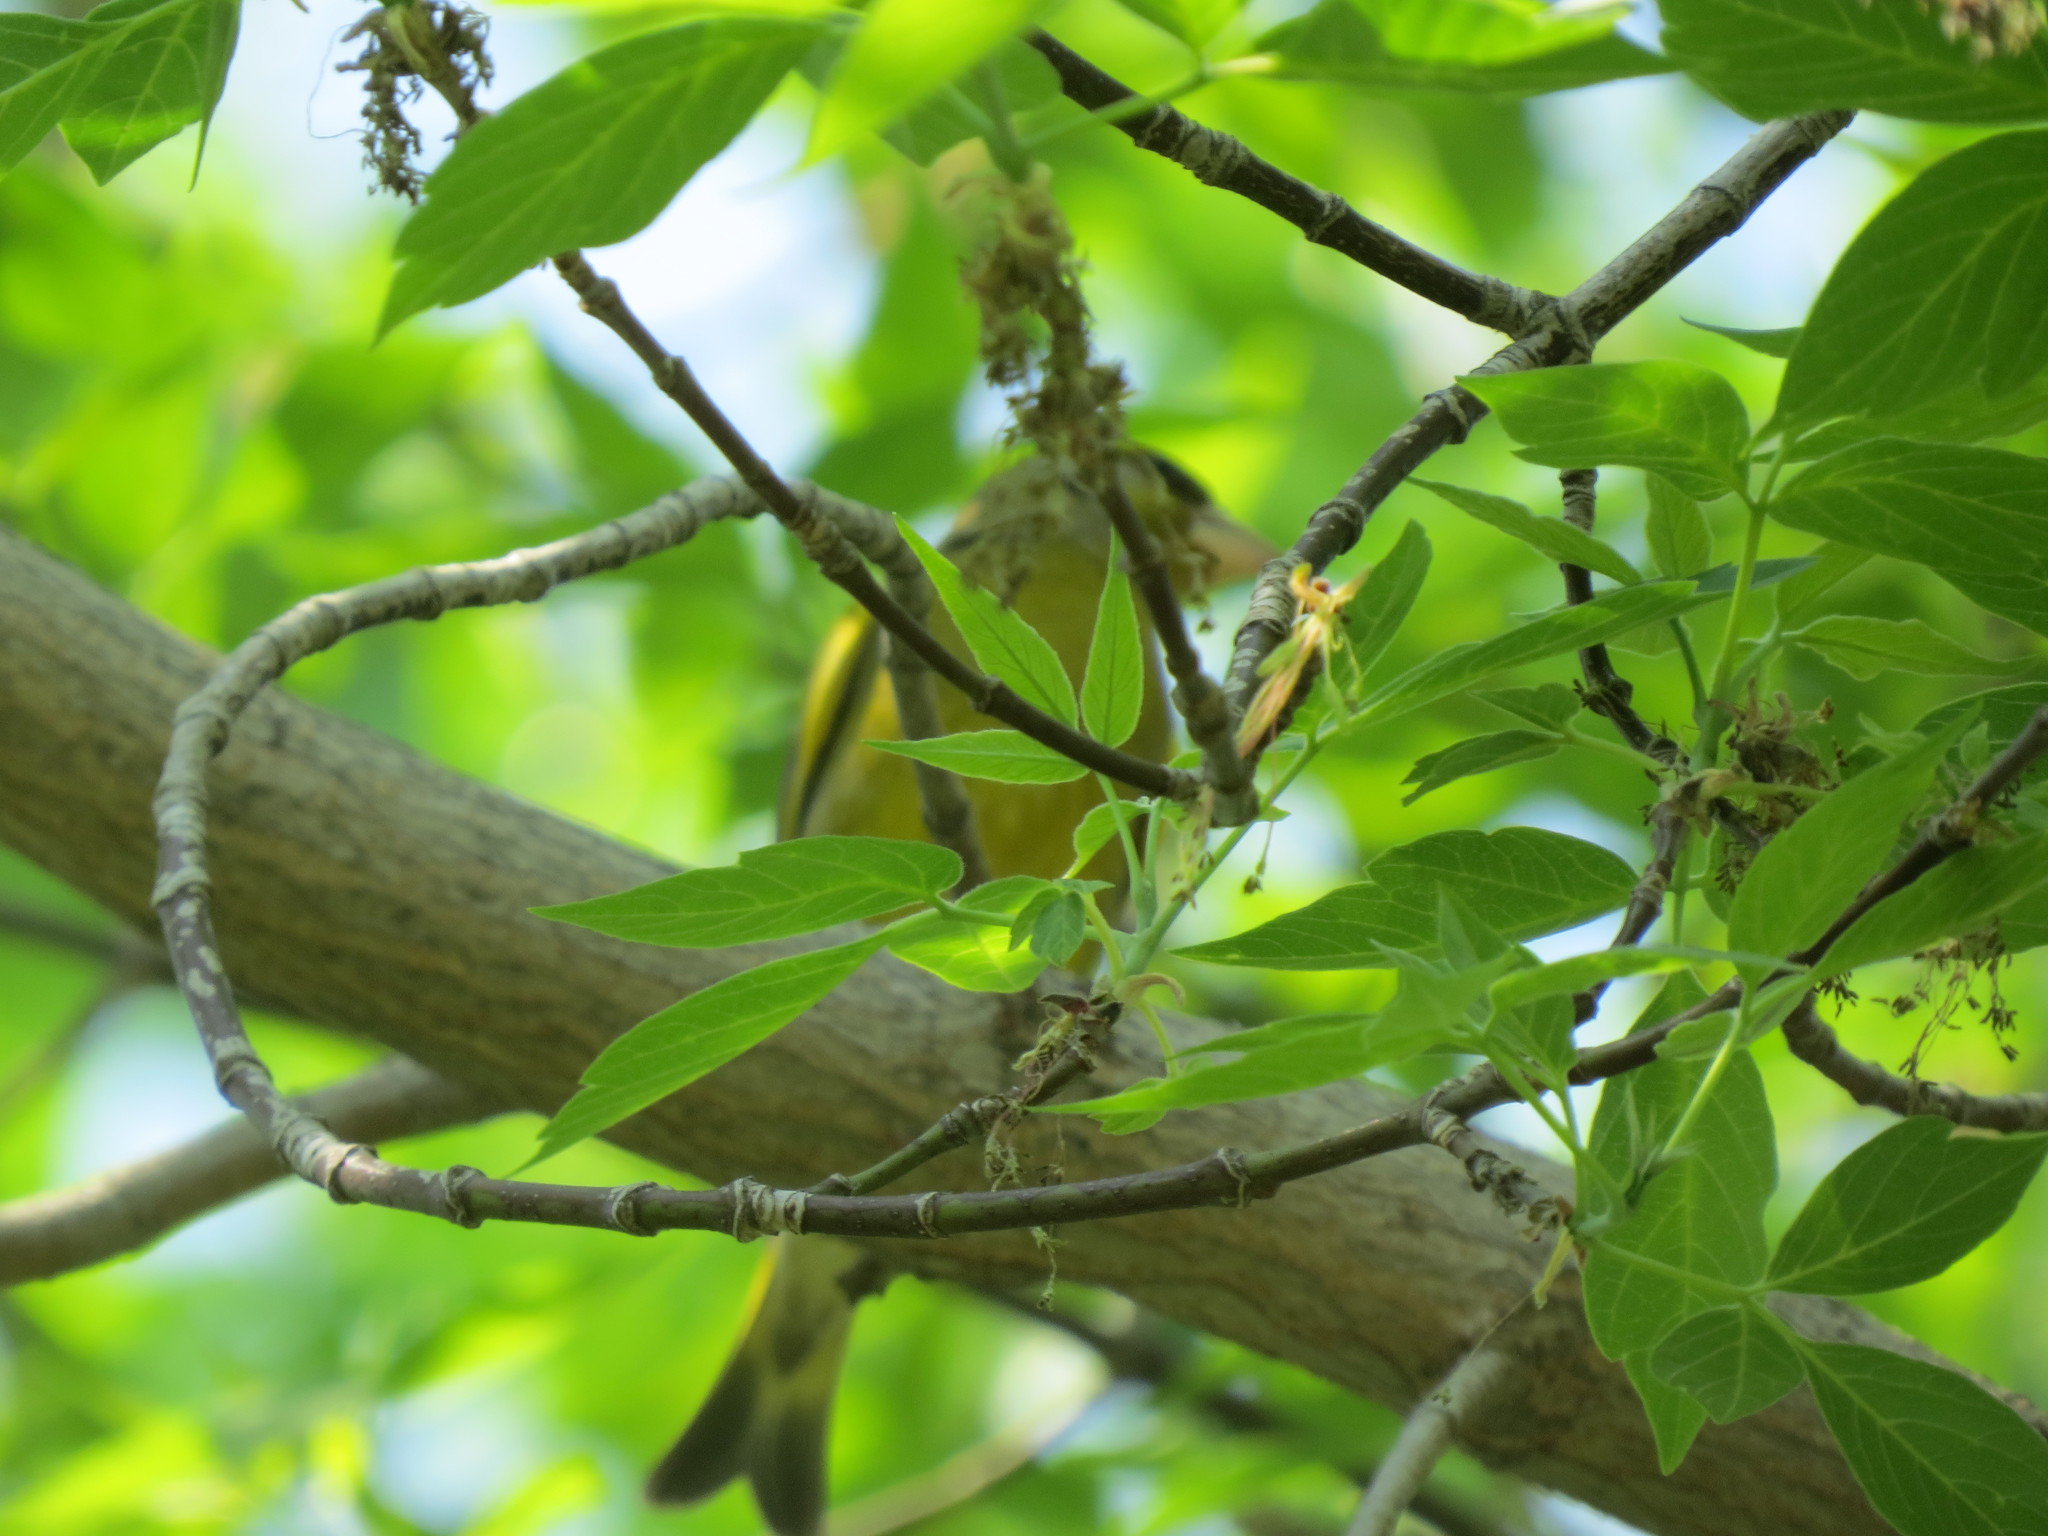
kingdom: Plantae
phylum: Tracheophyta
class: Liliopsida
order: Poales
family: Poaceae
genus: Chloris
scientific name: Chloris chloris
